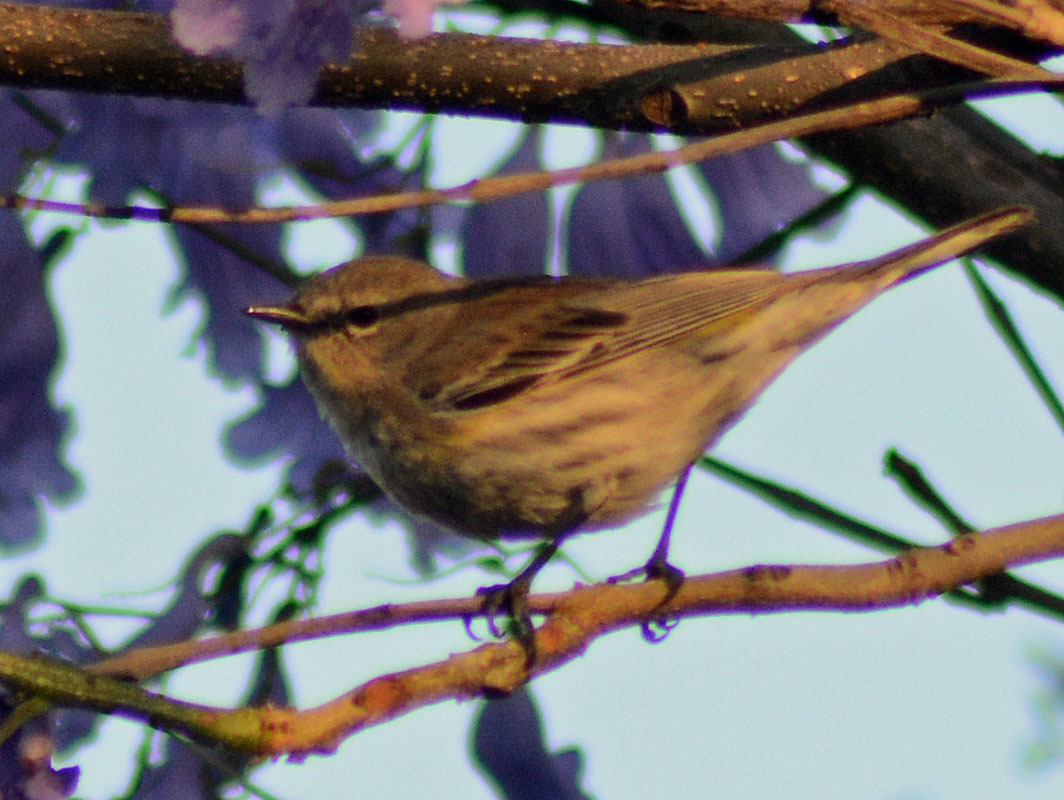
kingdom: Animalia
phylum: Chordata
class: Aves
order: Passeriformes
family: Parulidae
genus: Setophaga
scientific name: Setophaga coronata
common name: Myrtle warbler
